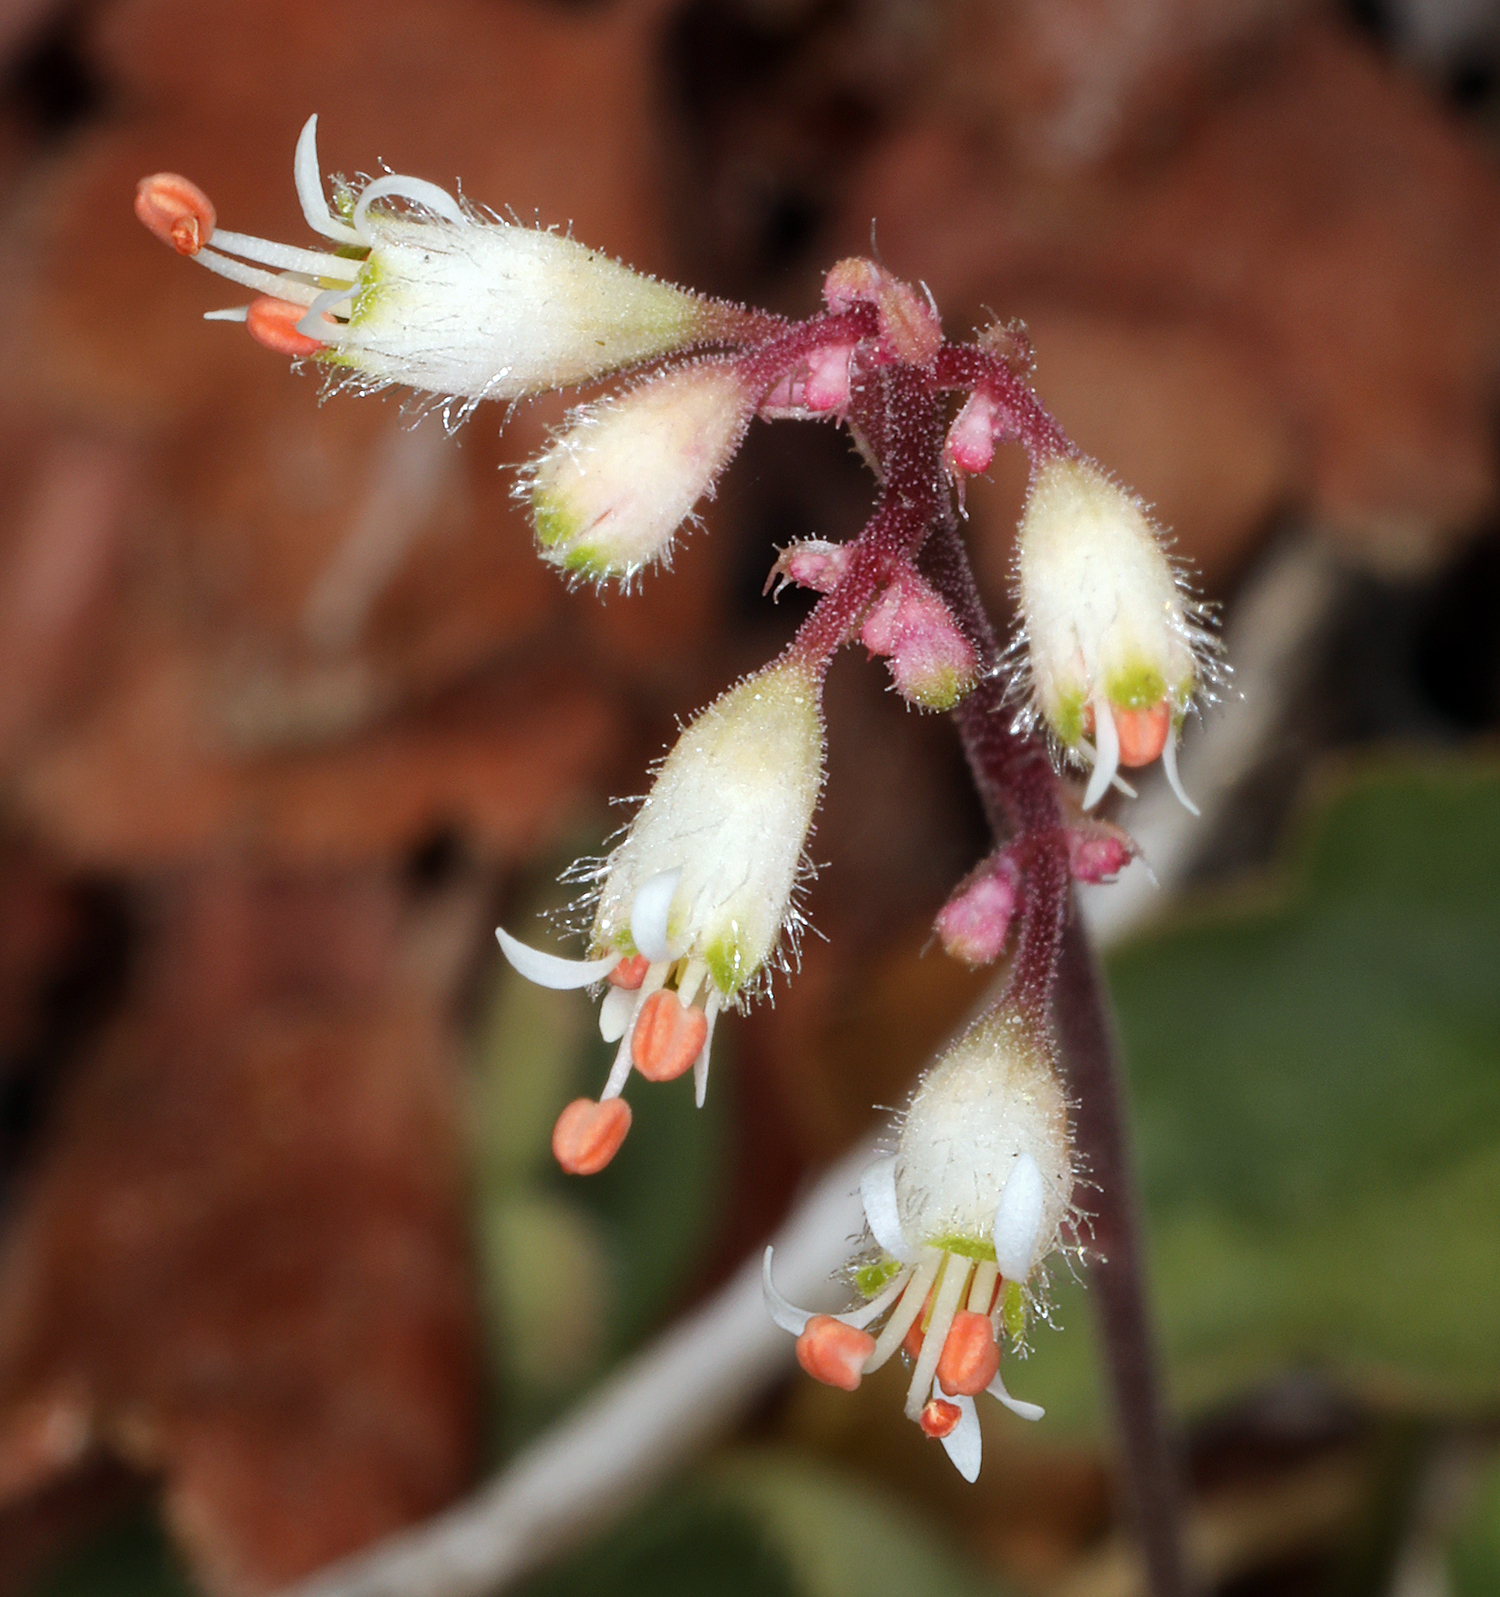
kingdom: Plantae
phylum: Tracheophyta
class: Magnoliopsida
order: Saxifragales
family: Saxifragaceae
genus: Heuchera
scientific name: Heuchera rubescens
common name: Jack-o'the-rocks
